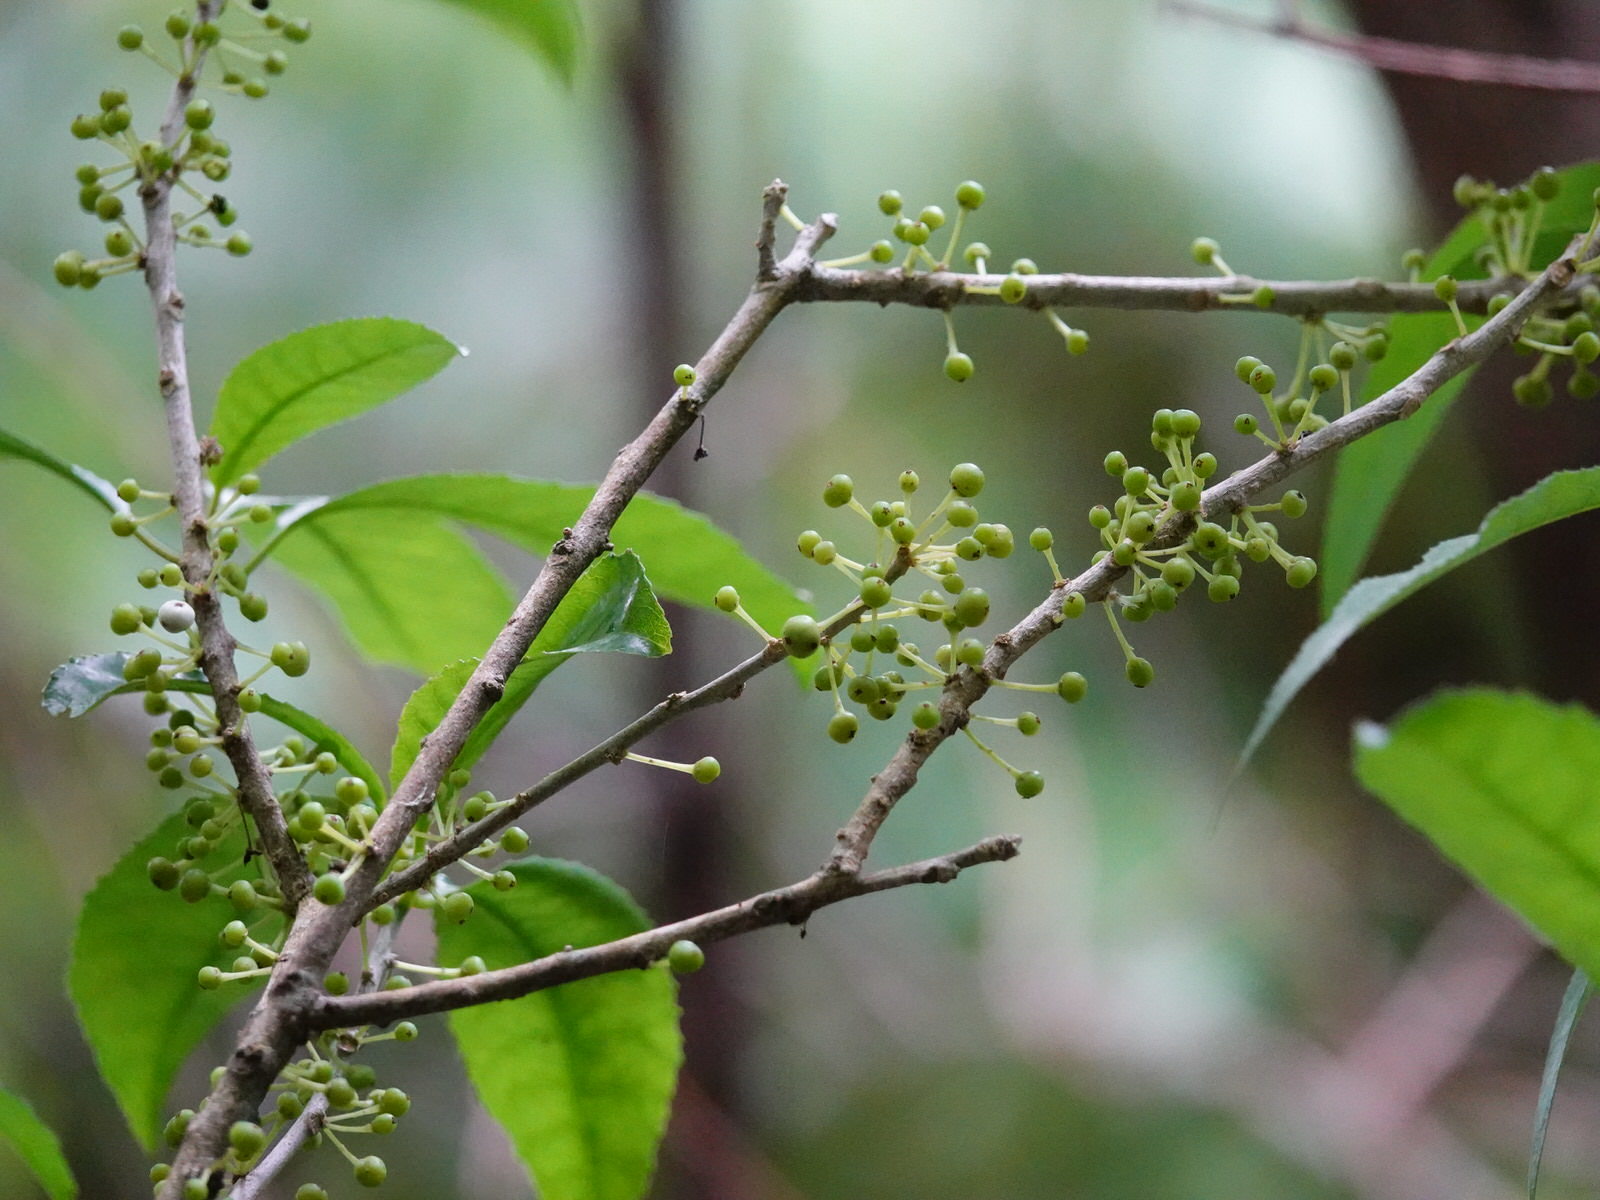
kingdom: Plantae
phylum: Tracheophyta
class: Magnoliopsida
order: Malpighiales
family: Violaceae
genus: Melicytus
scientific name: Melicytus ramiflorus
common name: Mahoe
